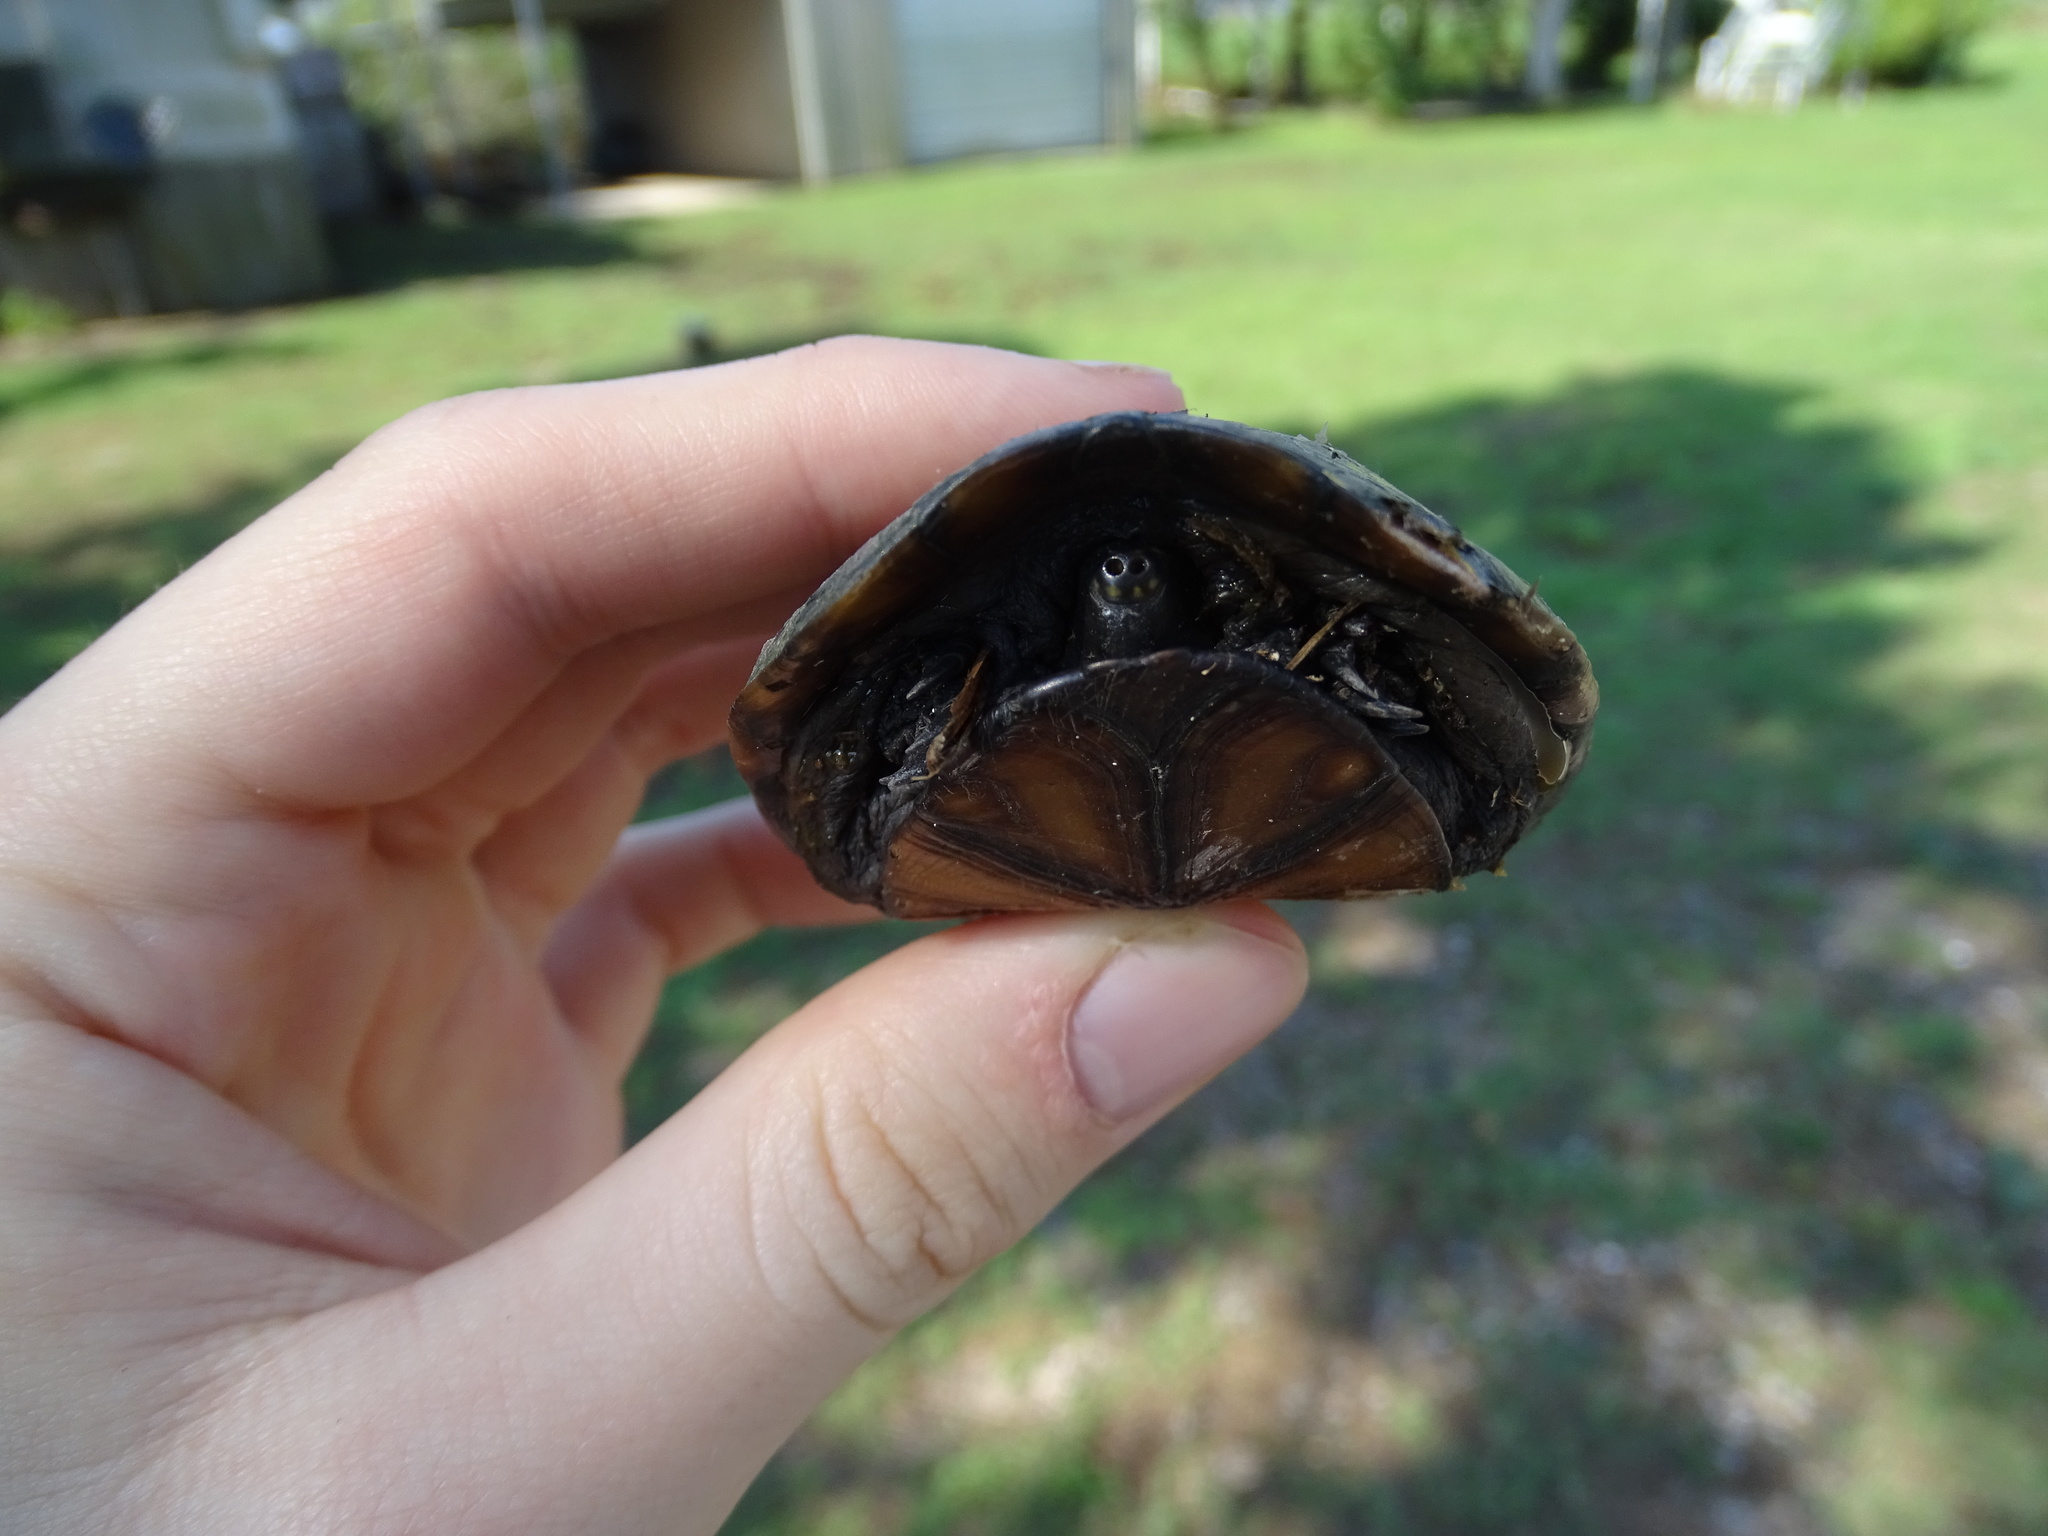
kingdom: Animalia
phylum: Chordata
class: Testudines
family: Kinosternidae
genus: Kinosternon
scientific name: Kinosternon subrubrum
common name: Eastern mud turtle
